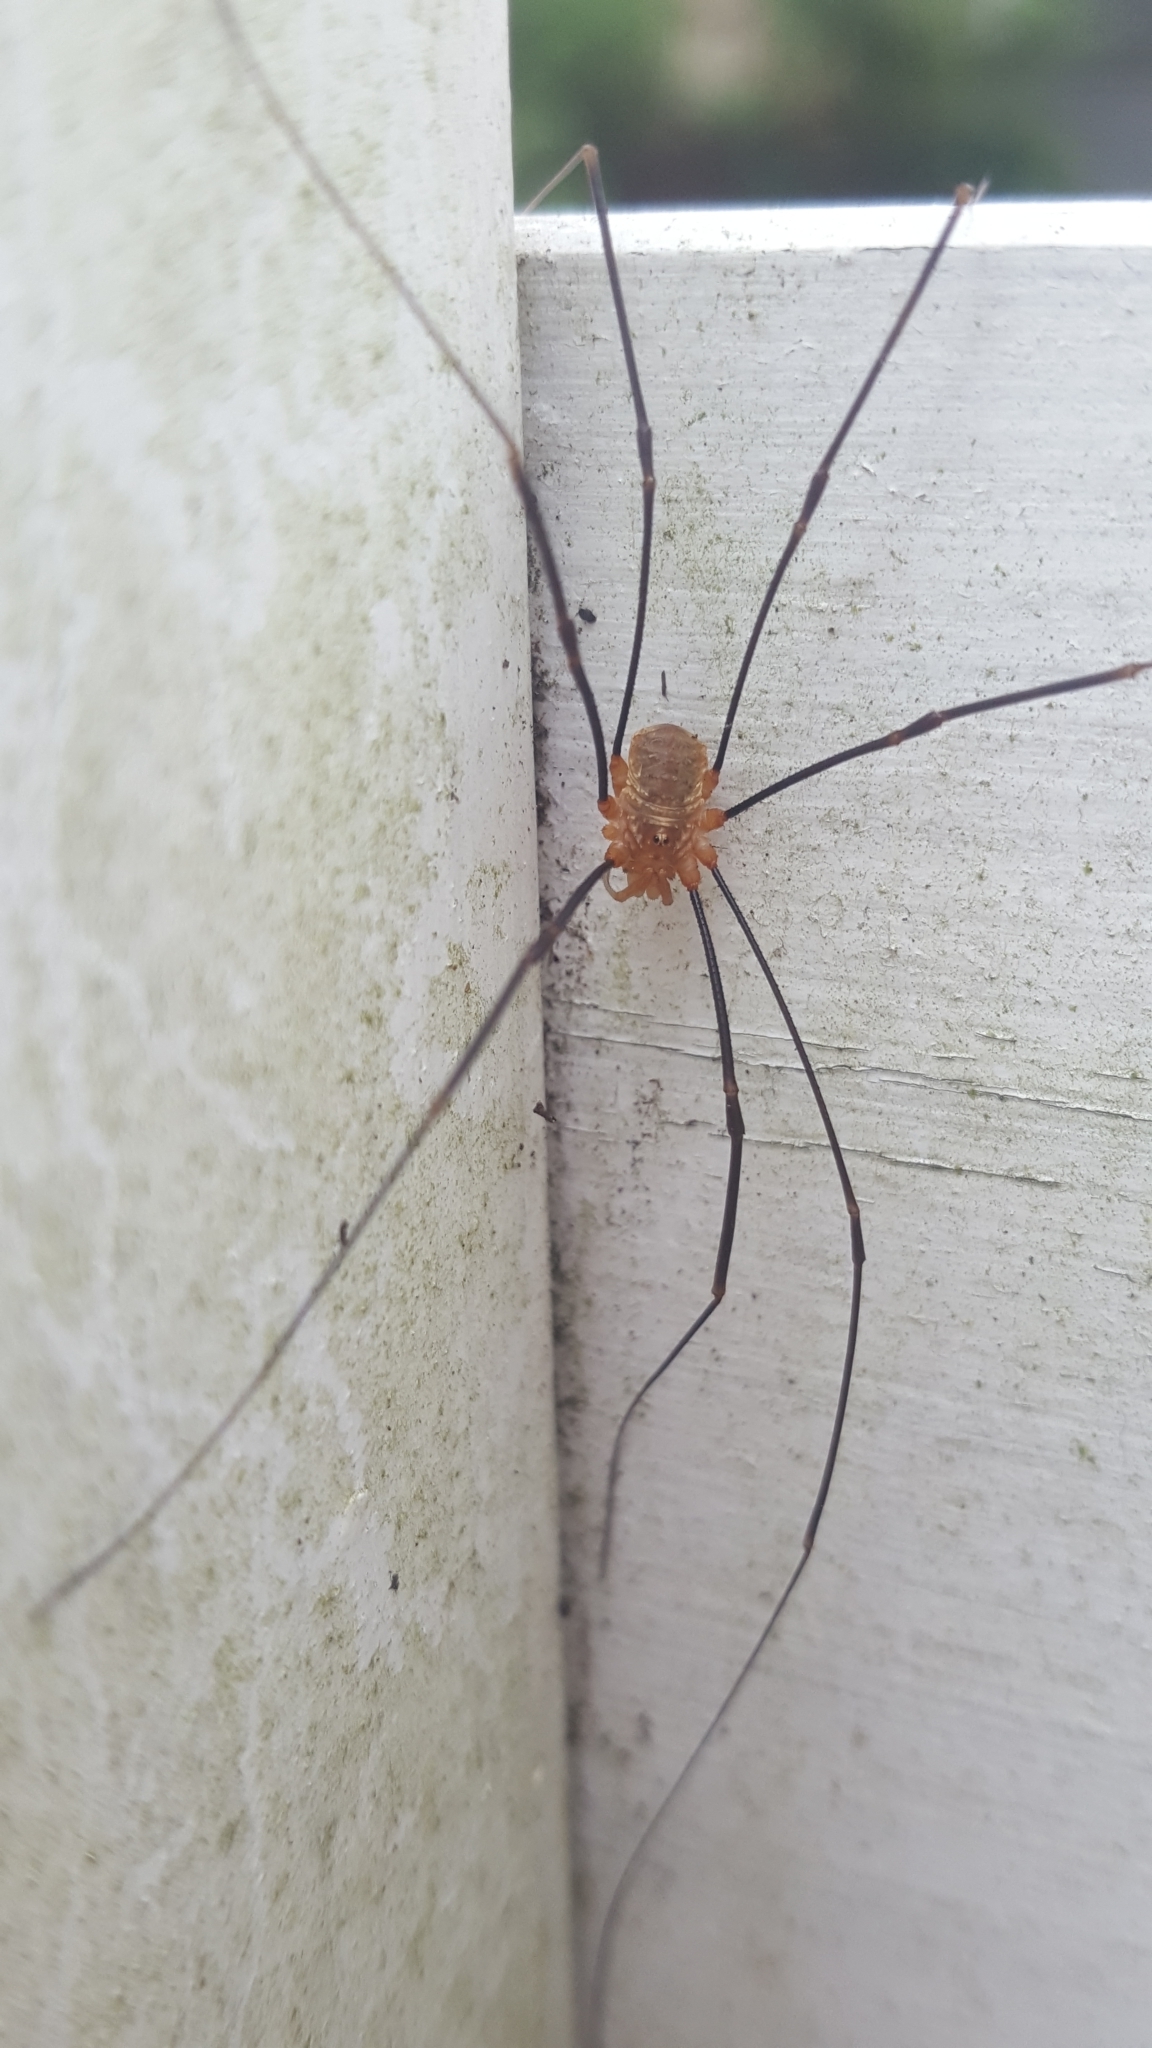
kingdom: Animalia
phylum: Arthropoda
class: Arachnida
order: Opiliones
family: Phalangiidae
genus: Opilio
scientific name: Opilio canestrinii
